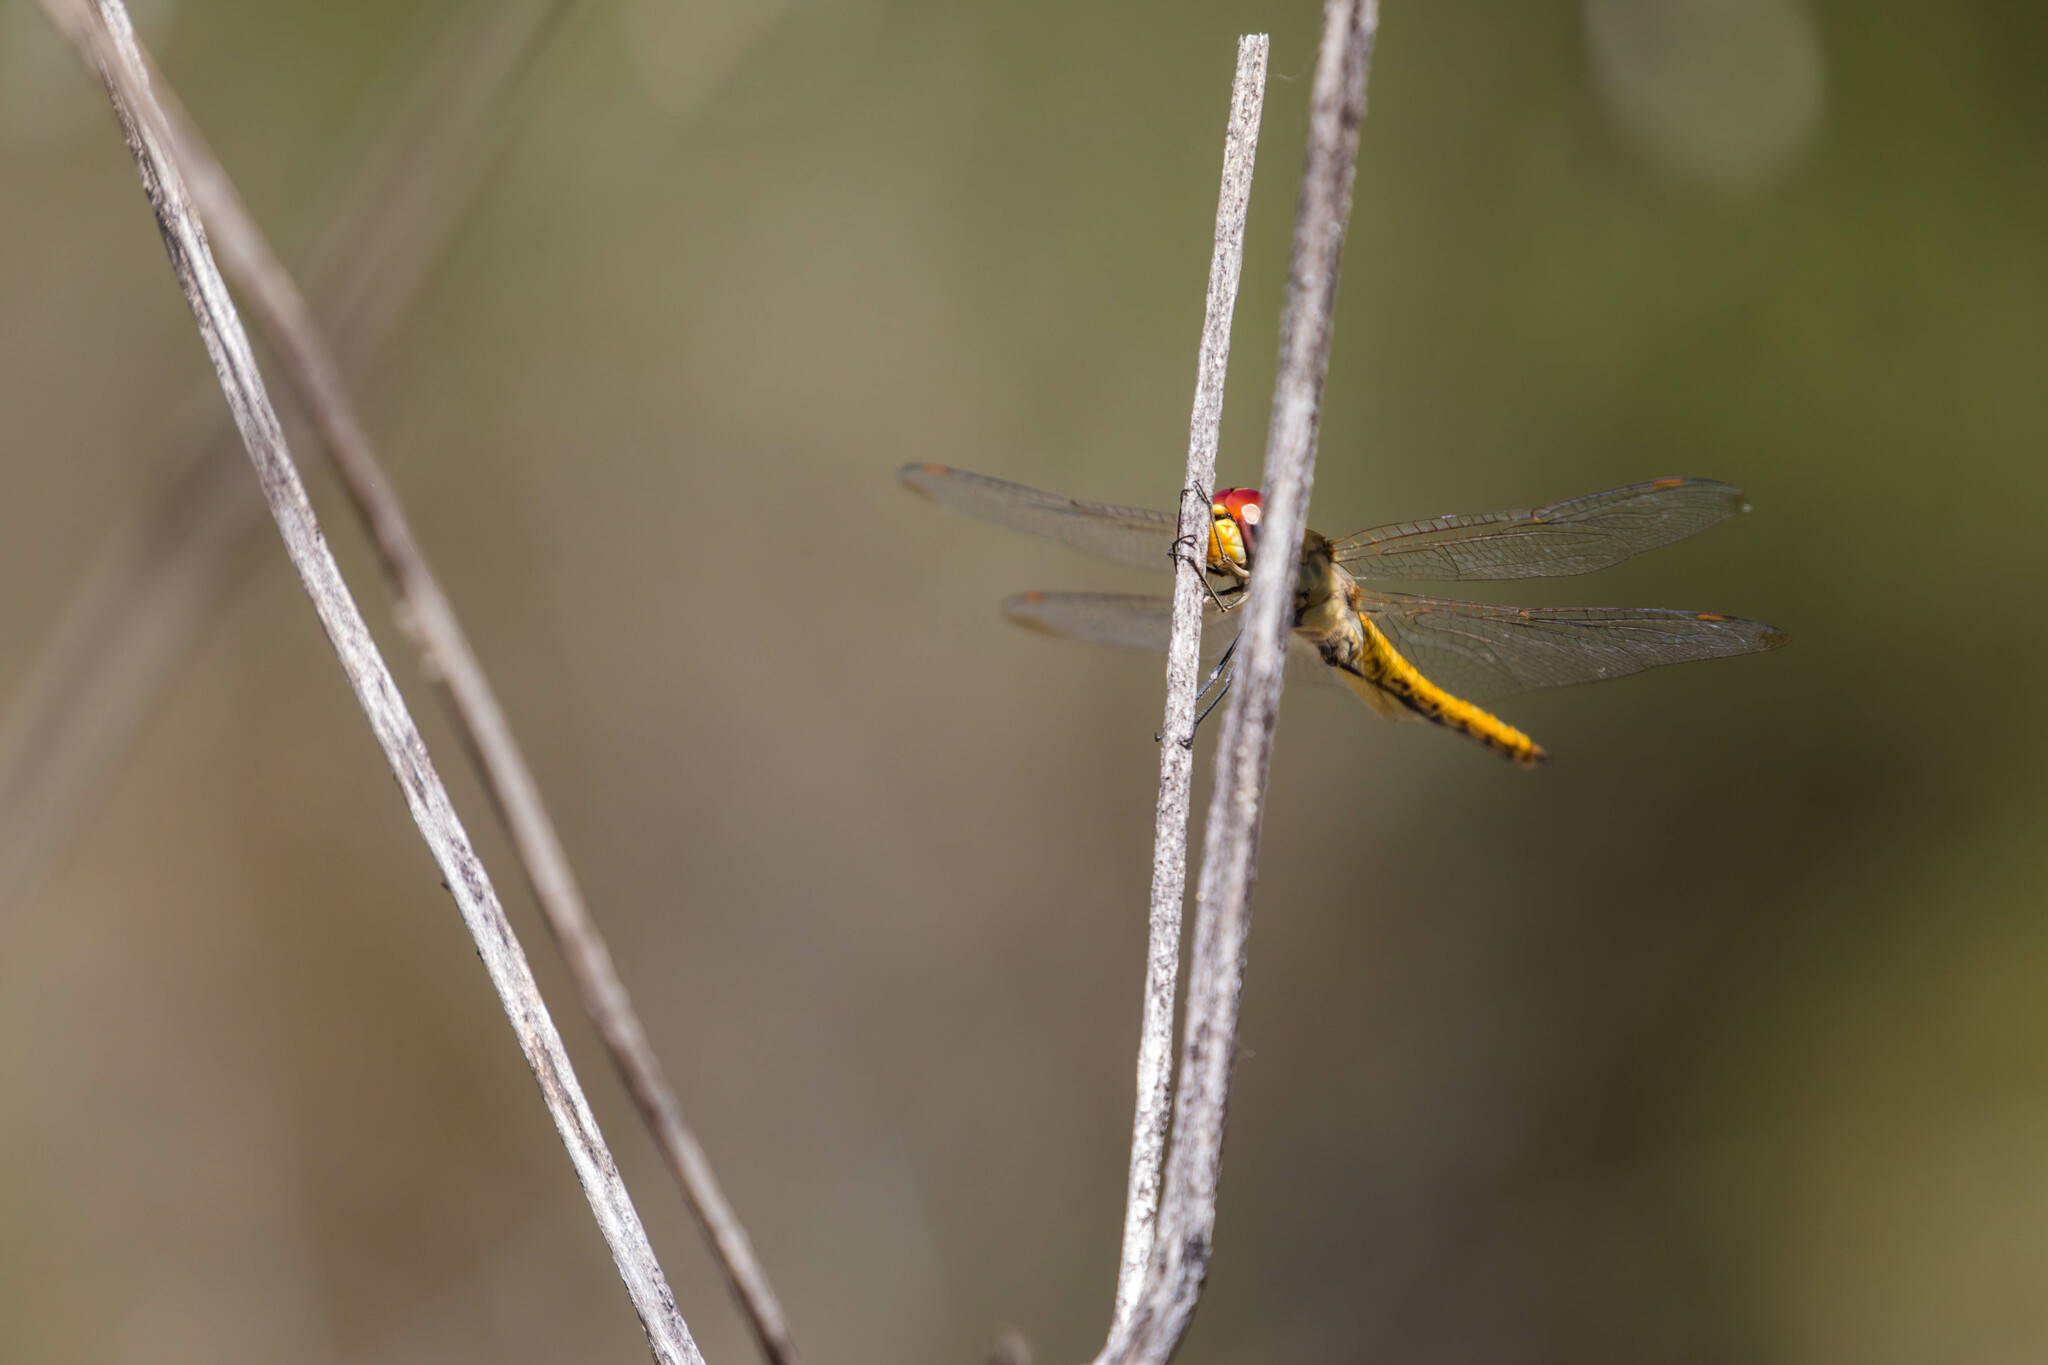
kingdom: Animalia
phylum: Arthropoda
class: Insecta
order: Odonata
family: Libellulidae
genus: Pantala
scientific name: Pantala flavescens
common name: Wandering glider
